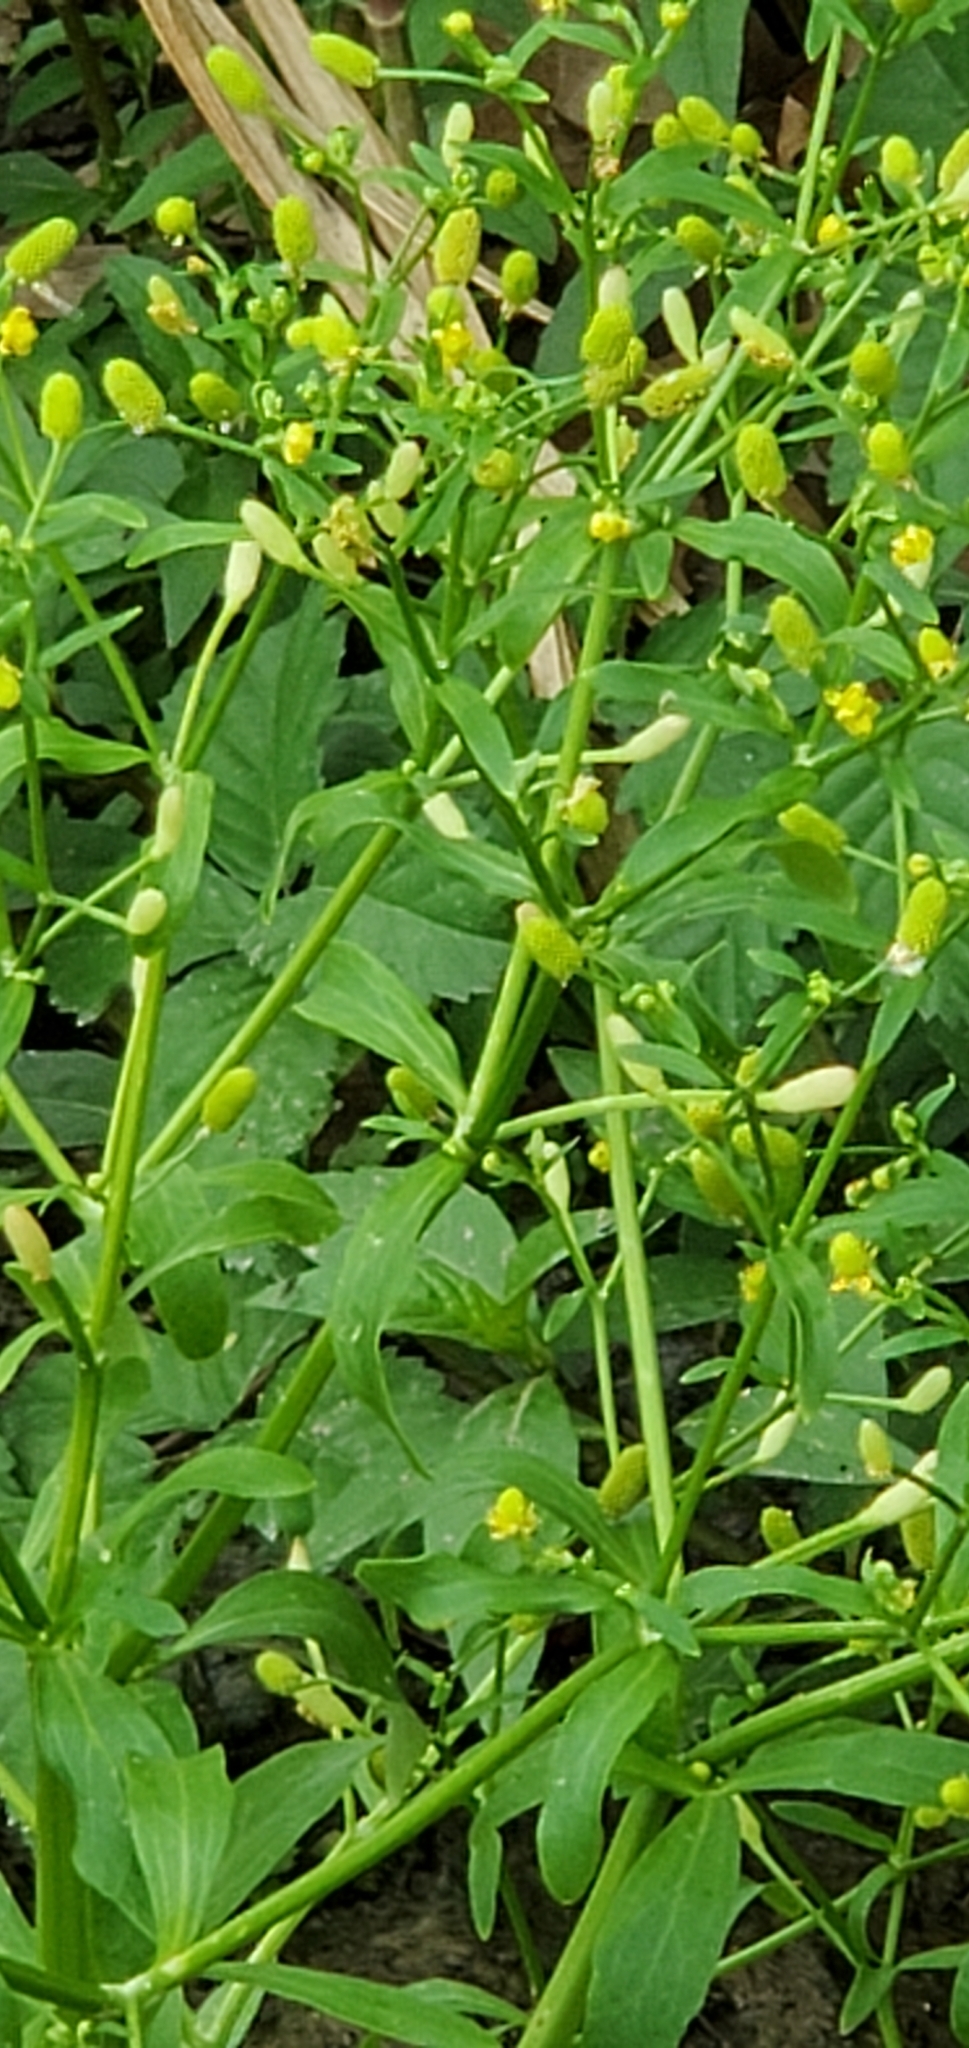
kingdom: Plantae
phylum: Tracheophyta
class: Magnoliopsida
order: Ranunculales
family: Ranunculaceae
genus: Ranunculus
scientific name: Ranunculus sceleratus
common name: Celery-leaved buttercup
